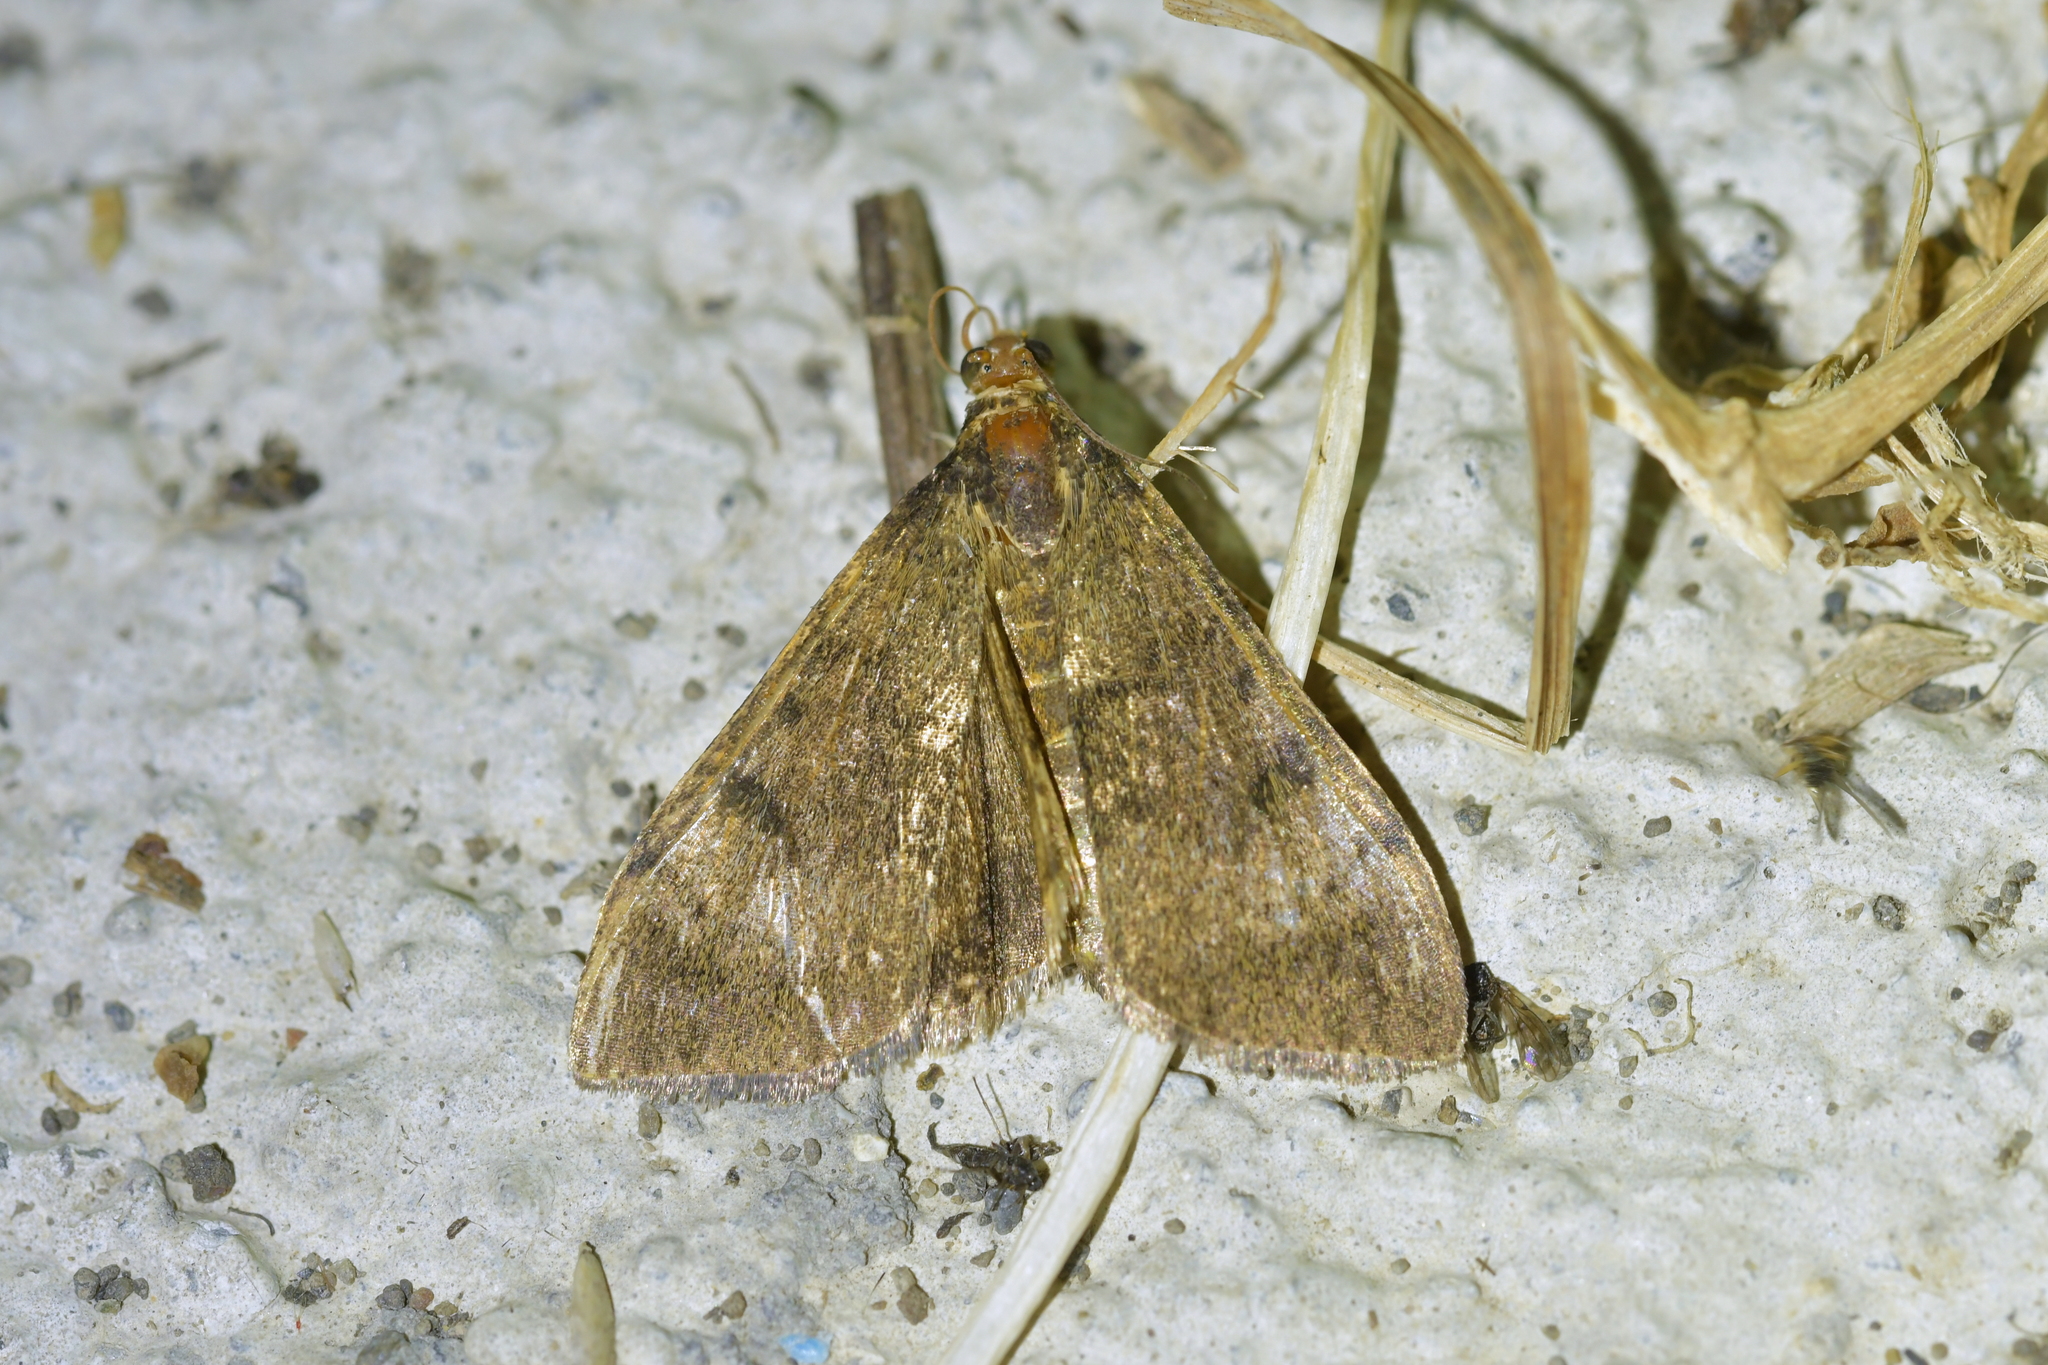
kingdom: Animalia
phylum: Arthropoda
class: Insecta
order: Lepidoptera
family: Crambidae
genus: Uresiphita
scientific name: Uresiphita
